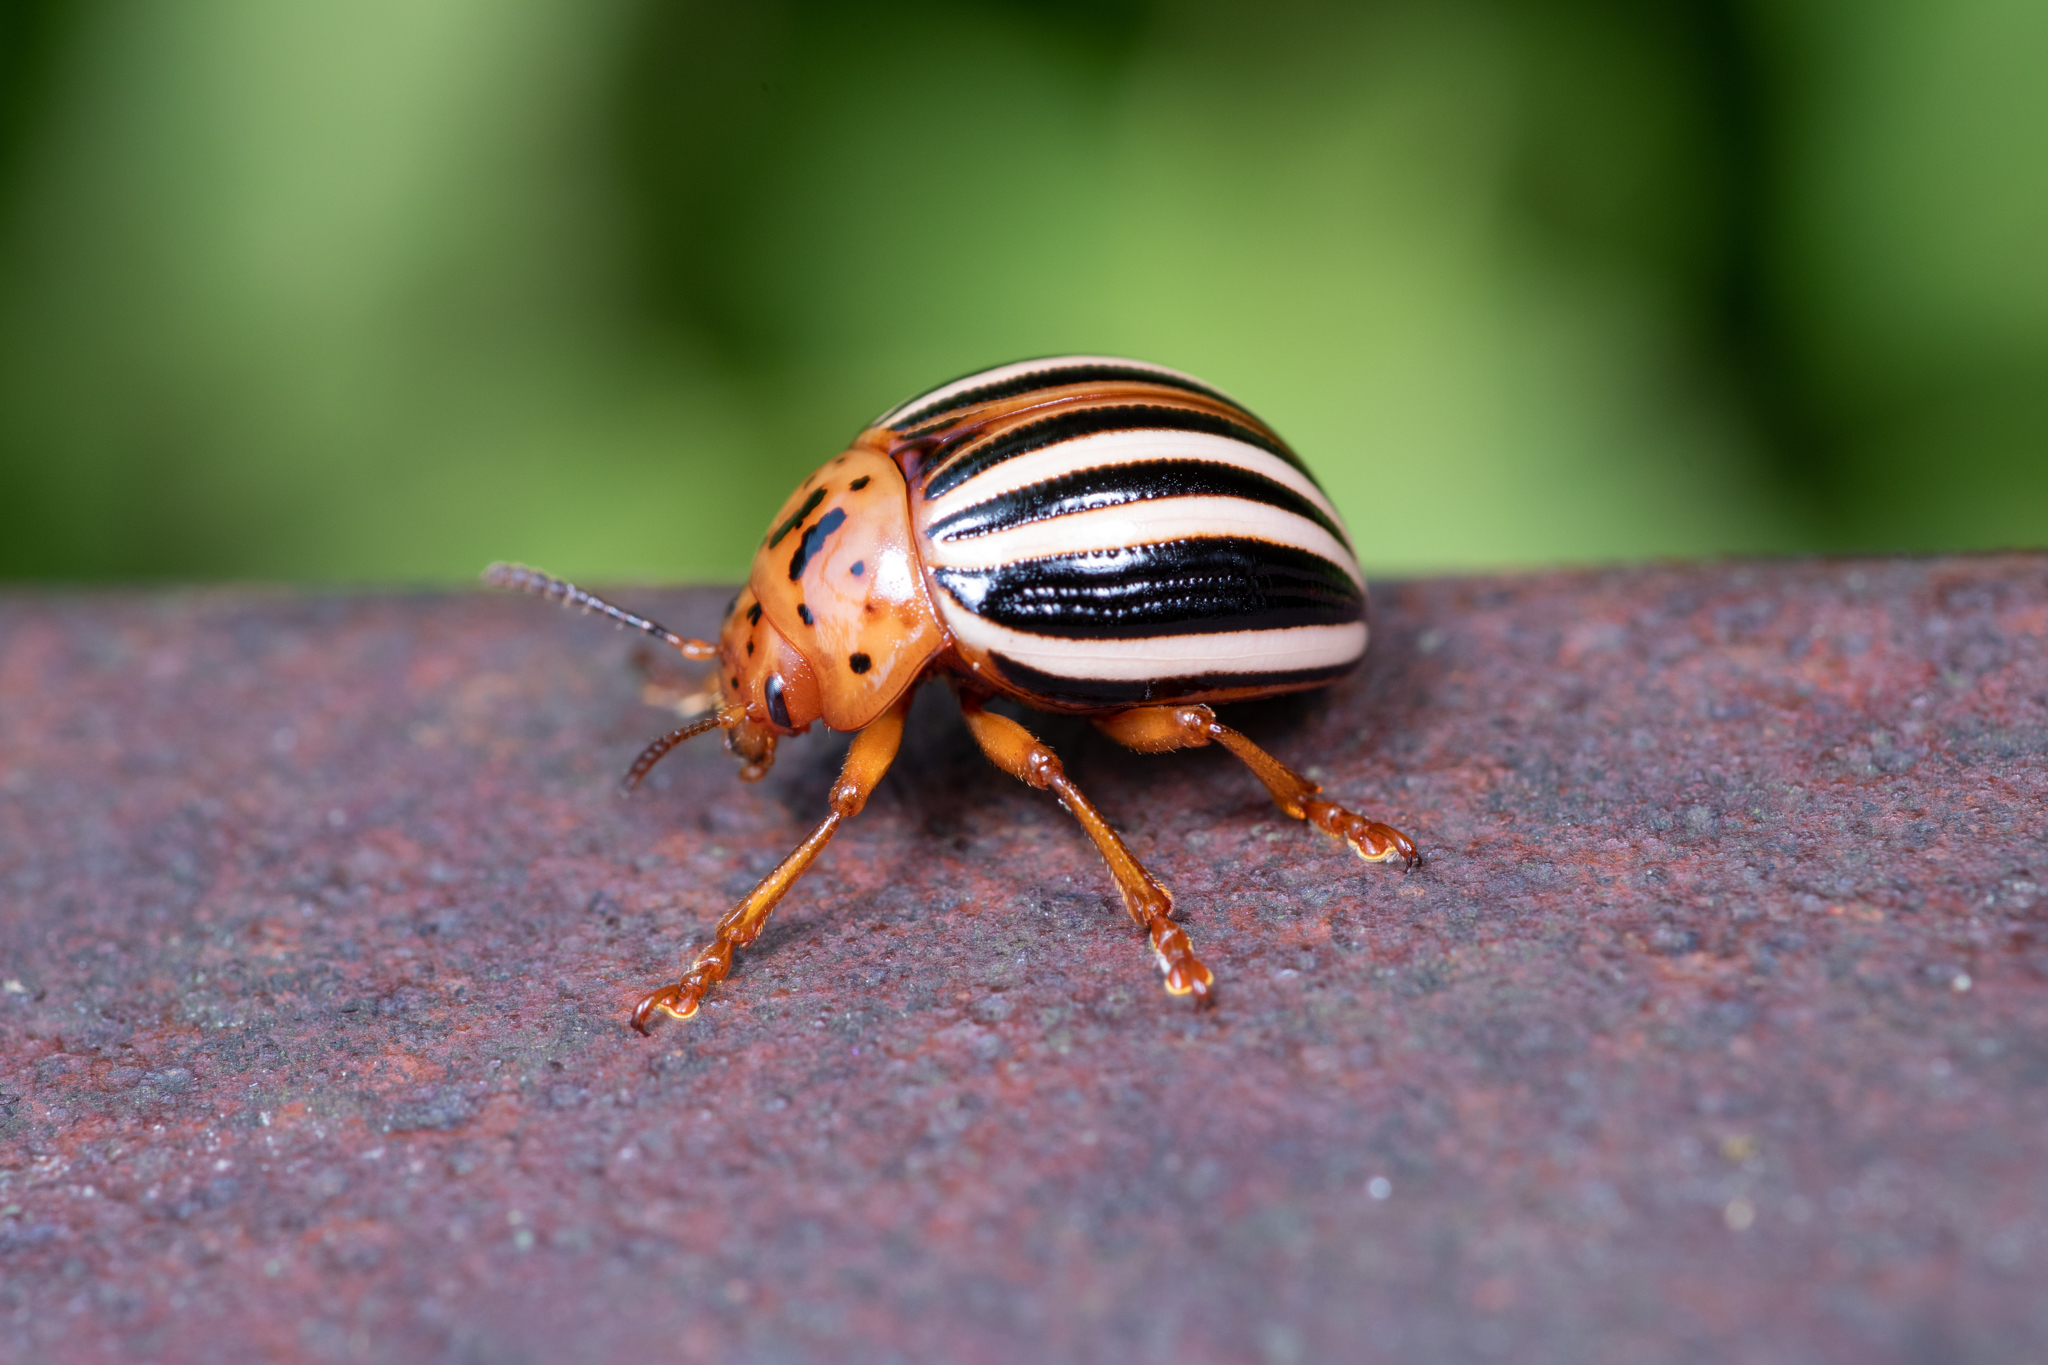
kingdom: Animalia
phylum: Arthropoda
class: Insecta
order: Coleoptera
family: Chrysomelidae
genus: Leptinotarsa
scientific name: Leptinotarsa juncta
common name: False potato beetle
